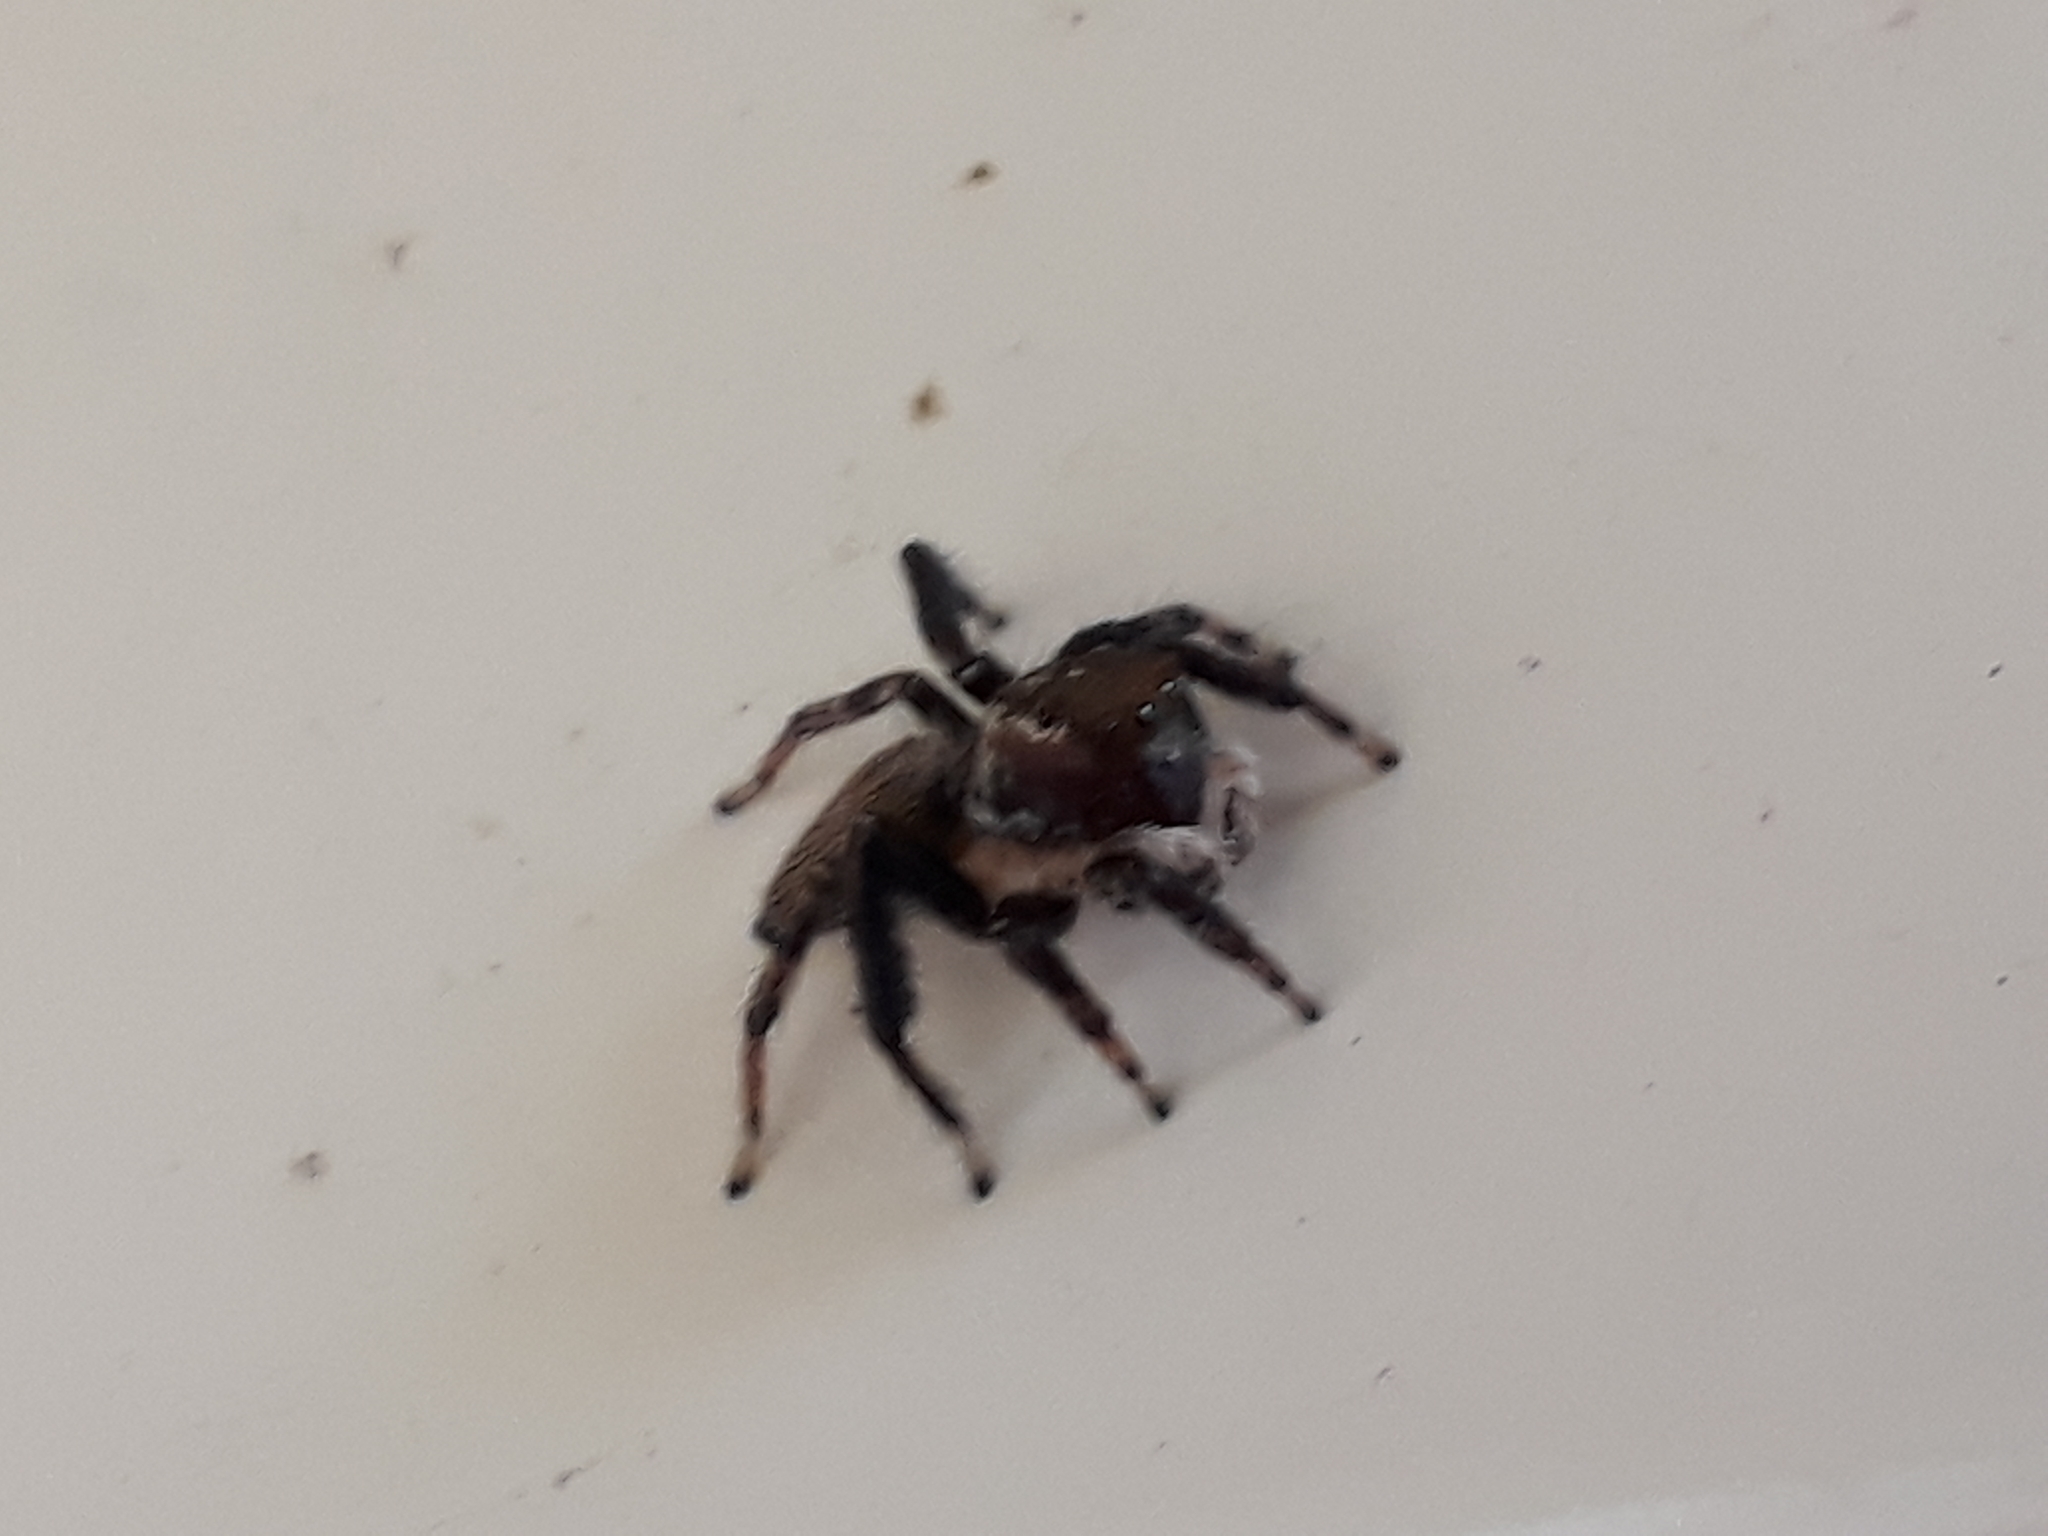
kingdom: Animalia
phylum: Arthropoda
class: Arachnida
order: Araneae
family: Salticidae
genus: Maratus
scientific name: Maratus griseus
